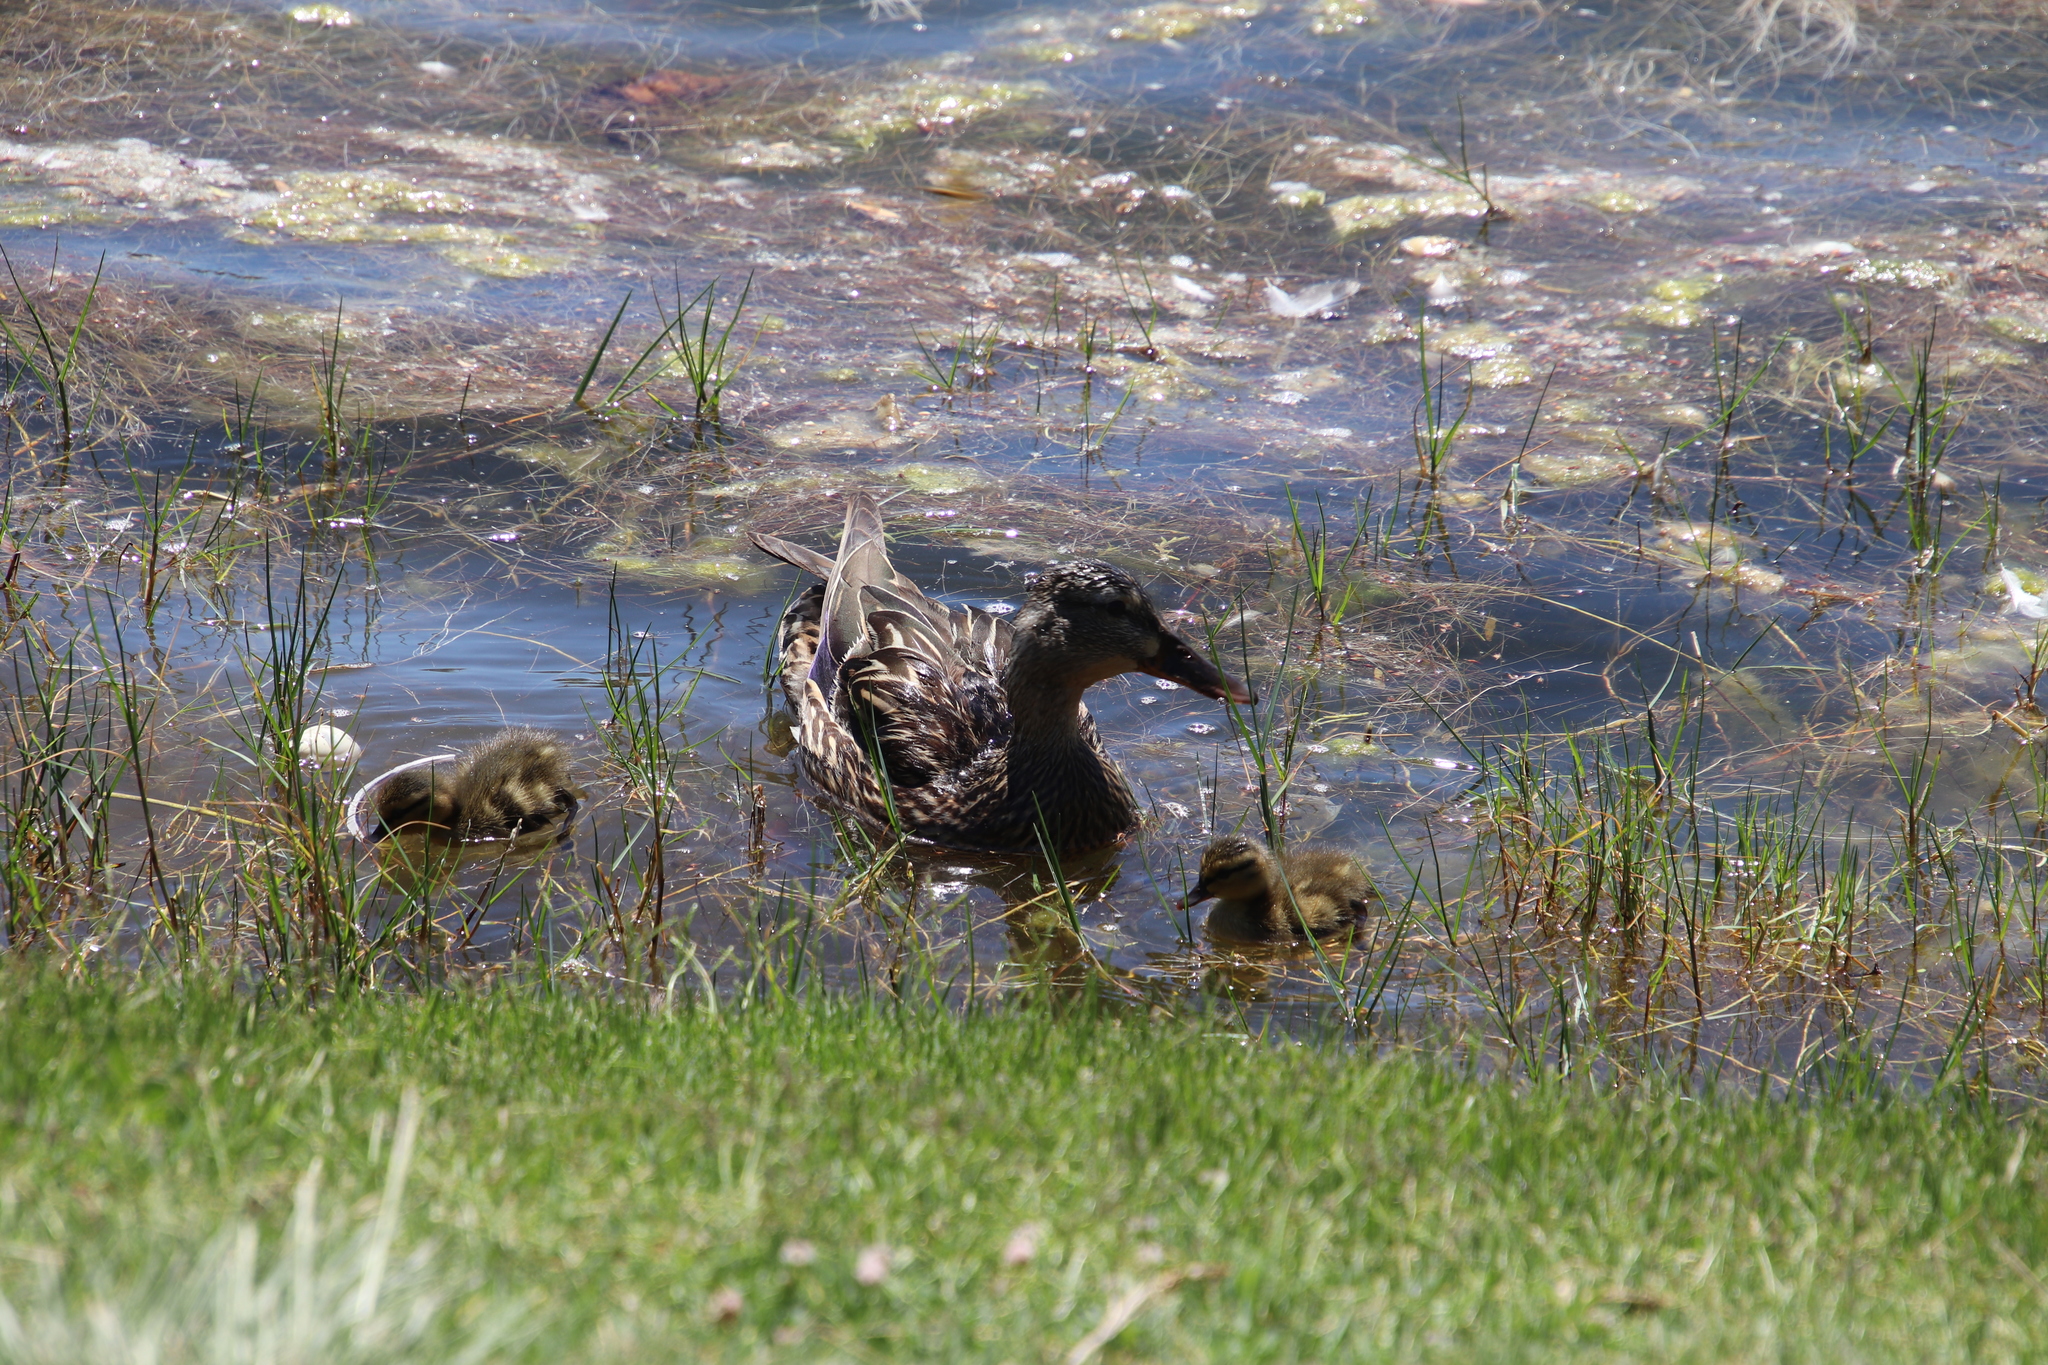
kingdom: Animalia
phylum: Chordata
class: Aves
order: Anseriformes
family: Anatidae
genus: Anas
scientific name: Anas platyrhynchos
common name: Mallard
